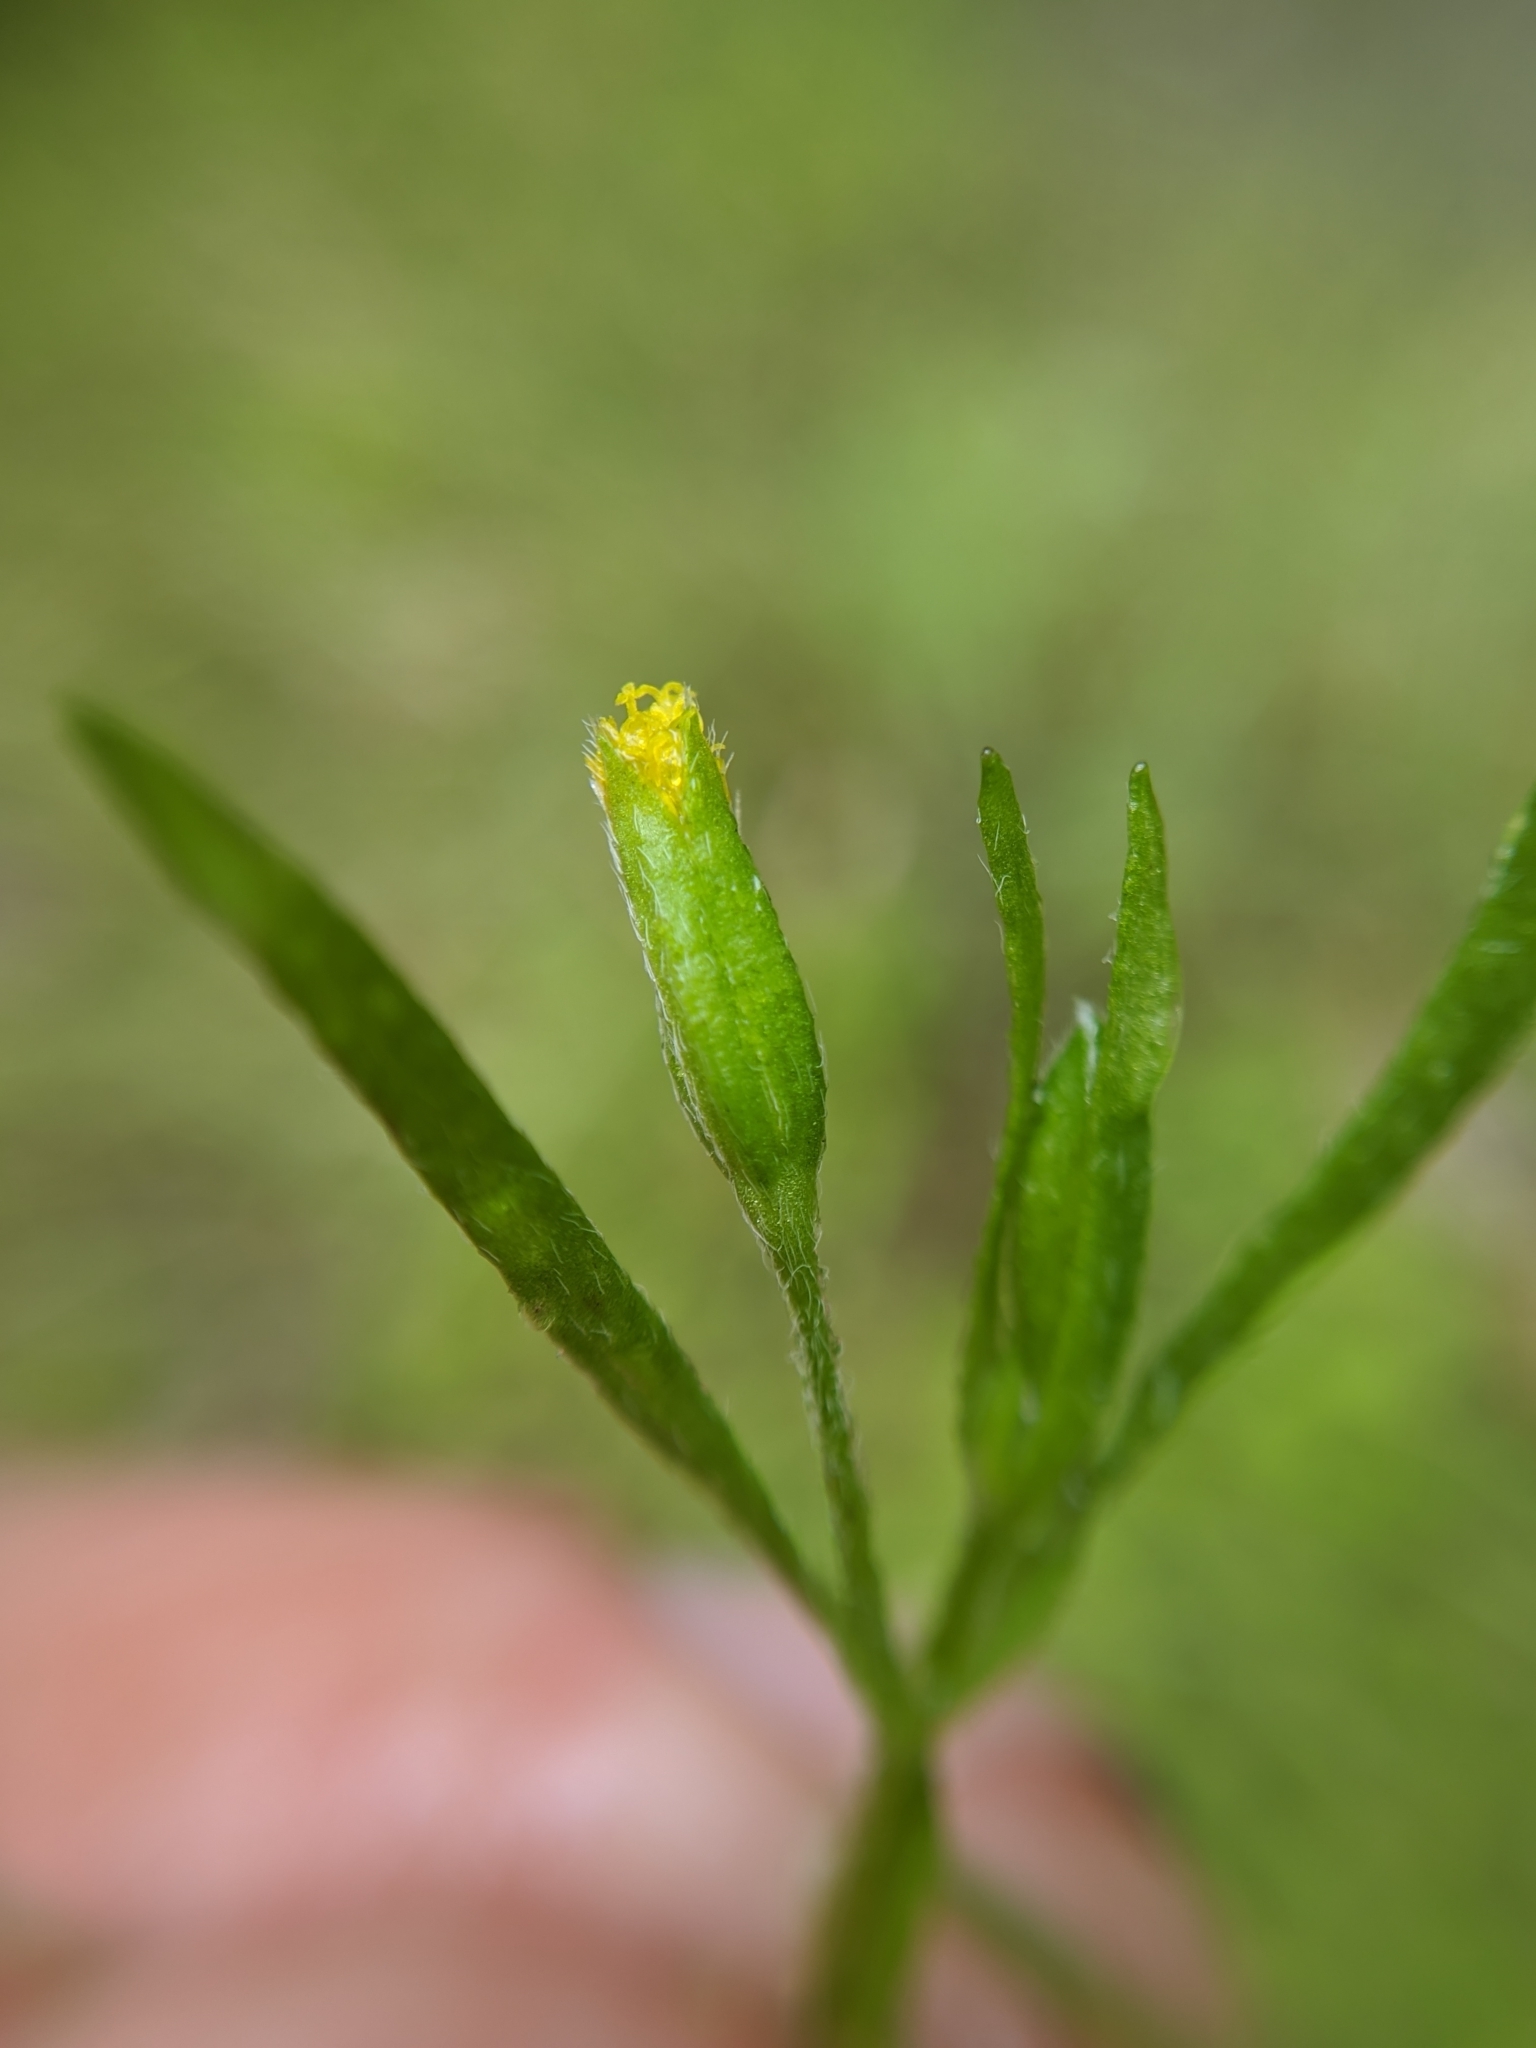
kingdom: Plantae
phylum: Tracheophyta
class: Magnoliopsida
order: Asterales
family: Asteraceae
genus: Lasthenia
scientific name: Lasthenia microglossa
